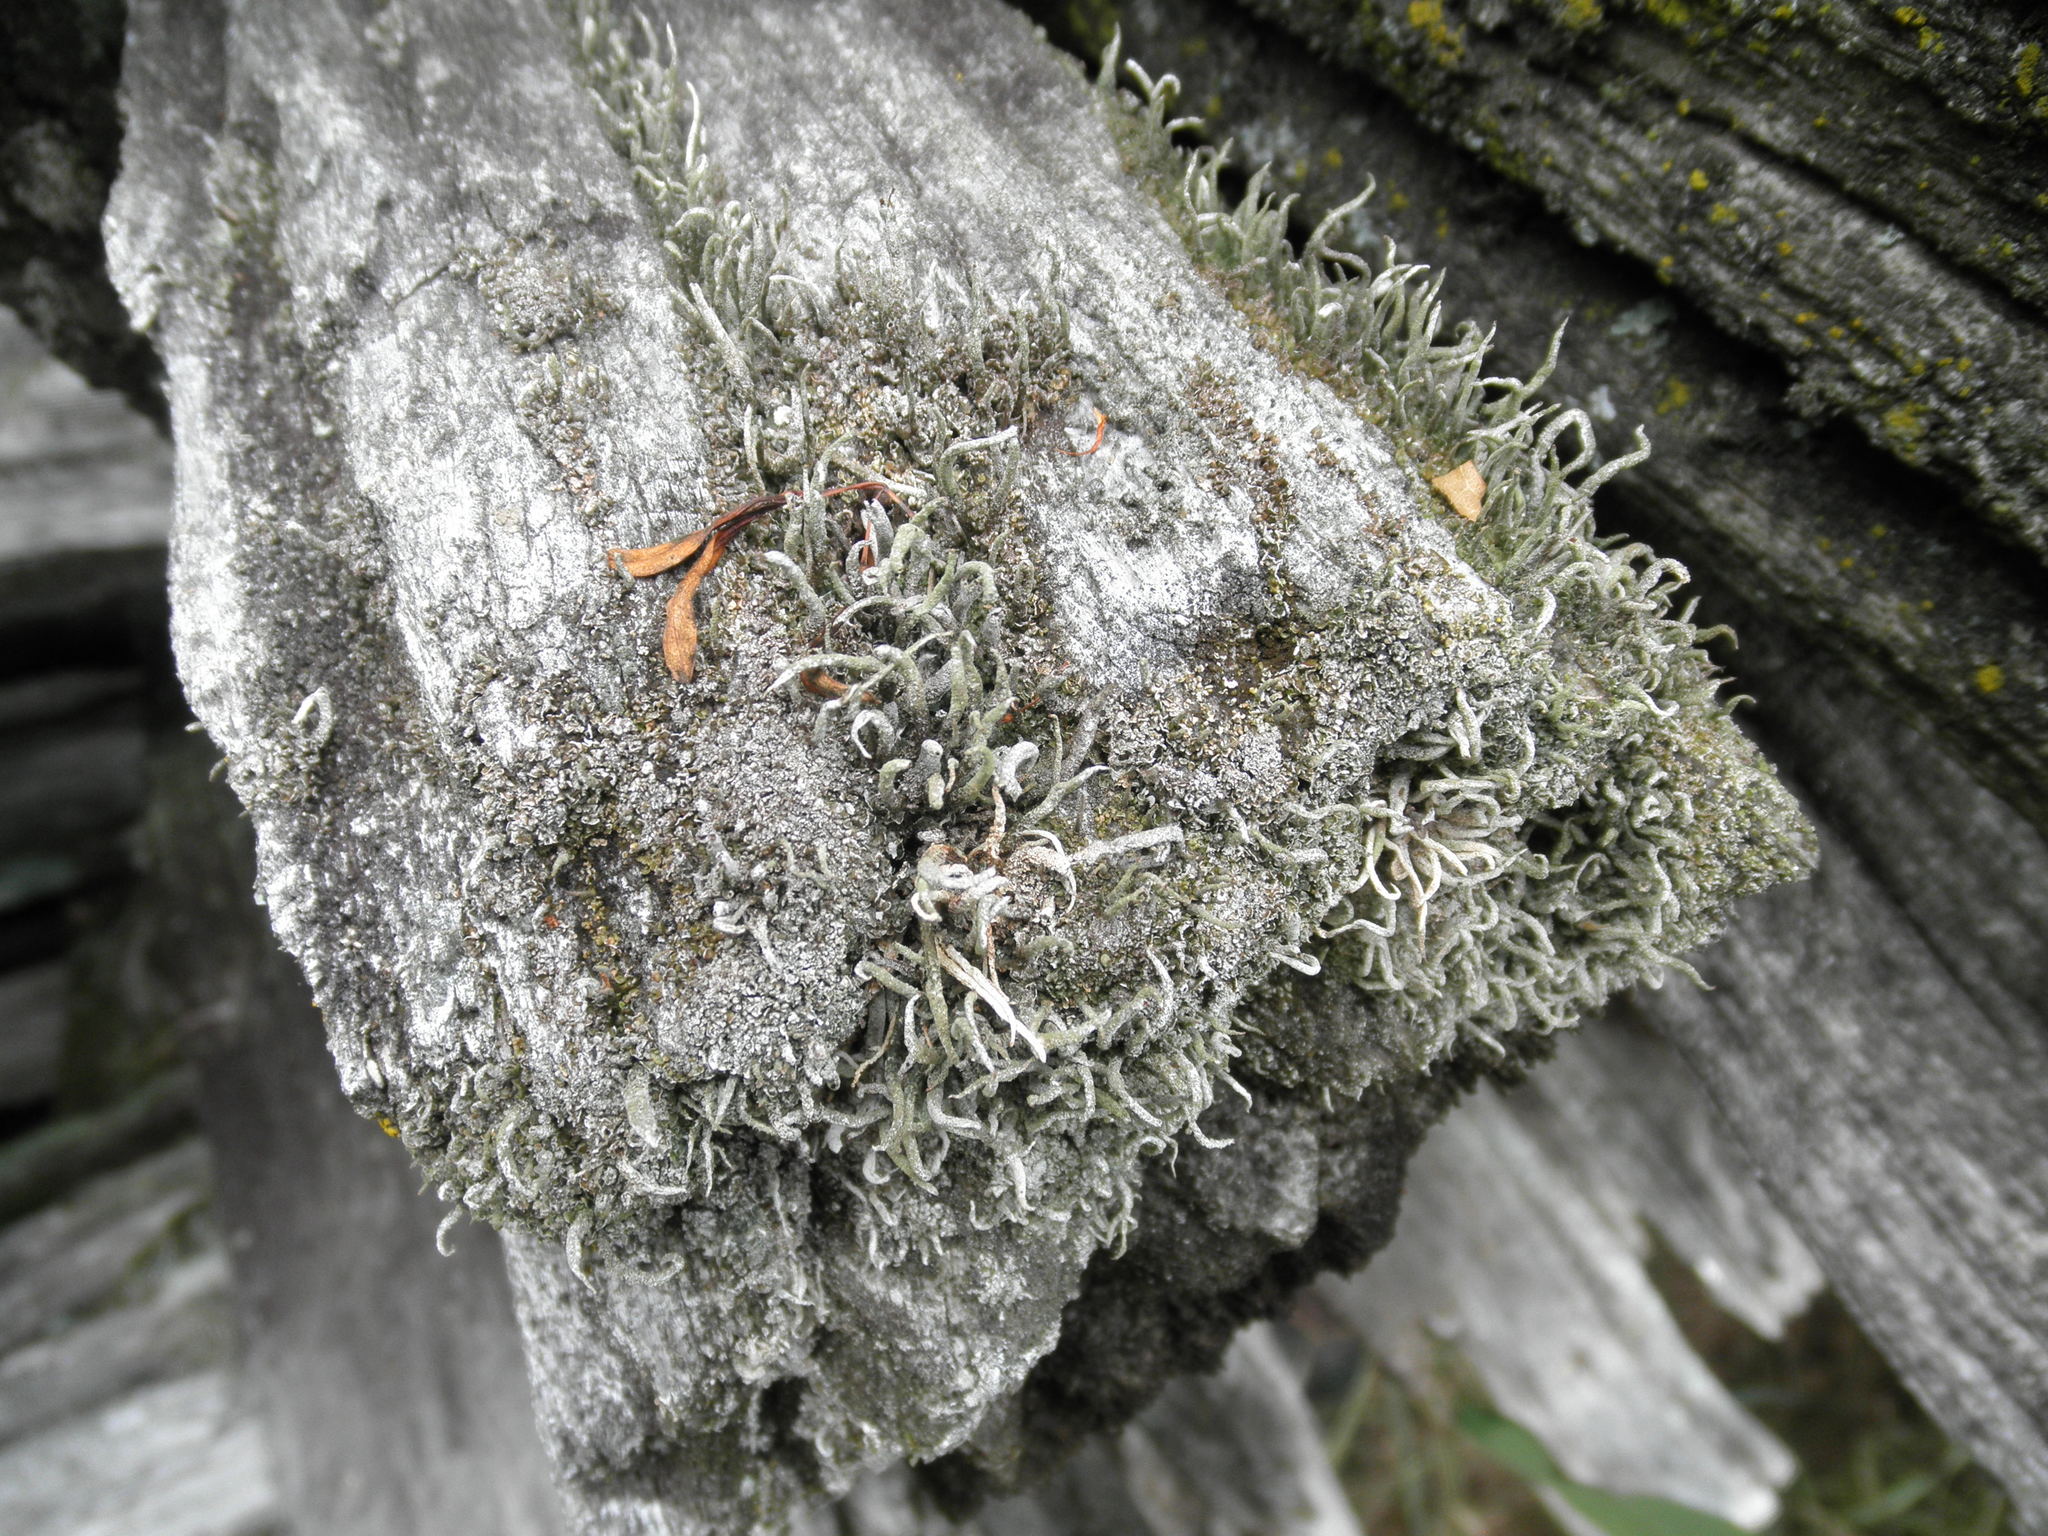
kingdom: Fungi
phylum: Ascomycota
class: Lecanoromycetes
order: Lecanorales
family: Cladoniaceae
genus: Cladonia
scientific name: Cladonia coniocraea
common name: Common powderhorn
